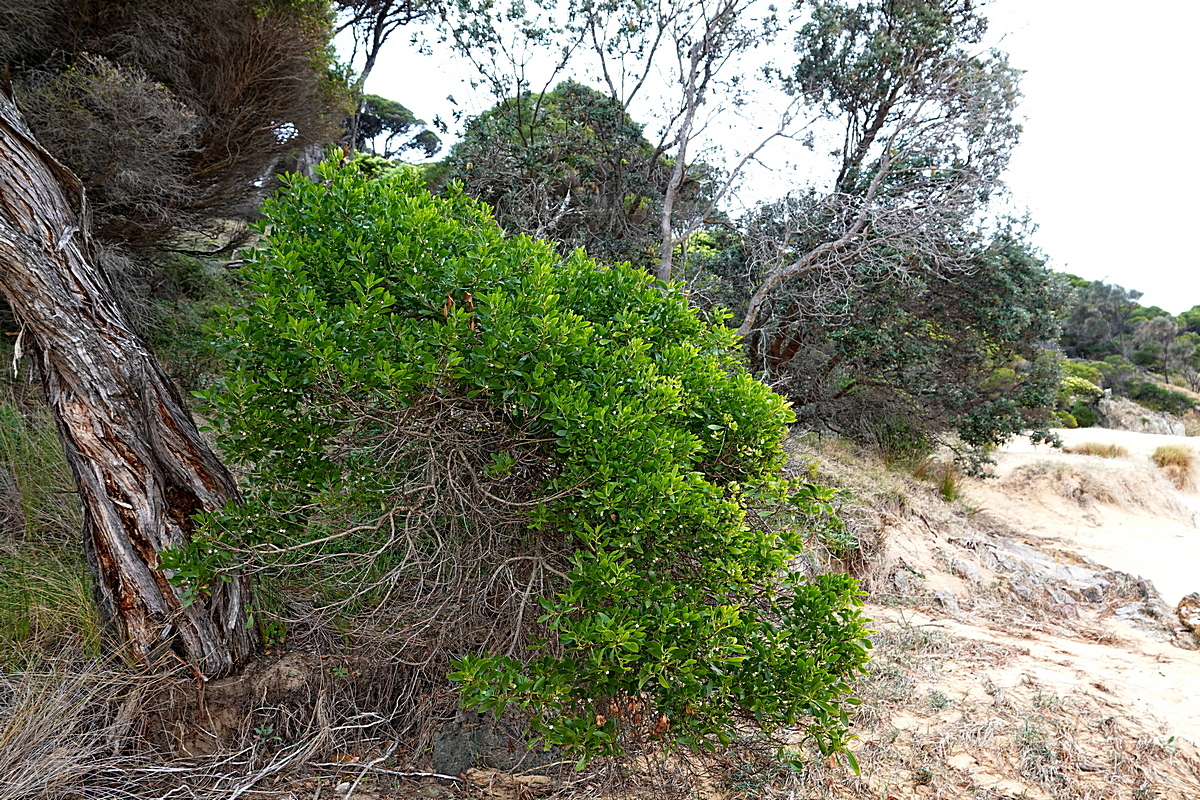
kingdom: Plantae
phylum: Tracheophyta
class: Magnoliopsida
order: Lamiales
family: Scrophulariaceae
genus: Myoporum
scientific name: Myoporum boninense
